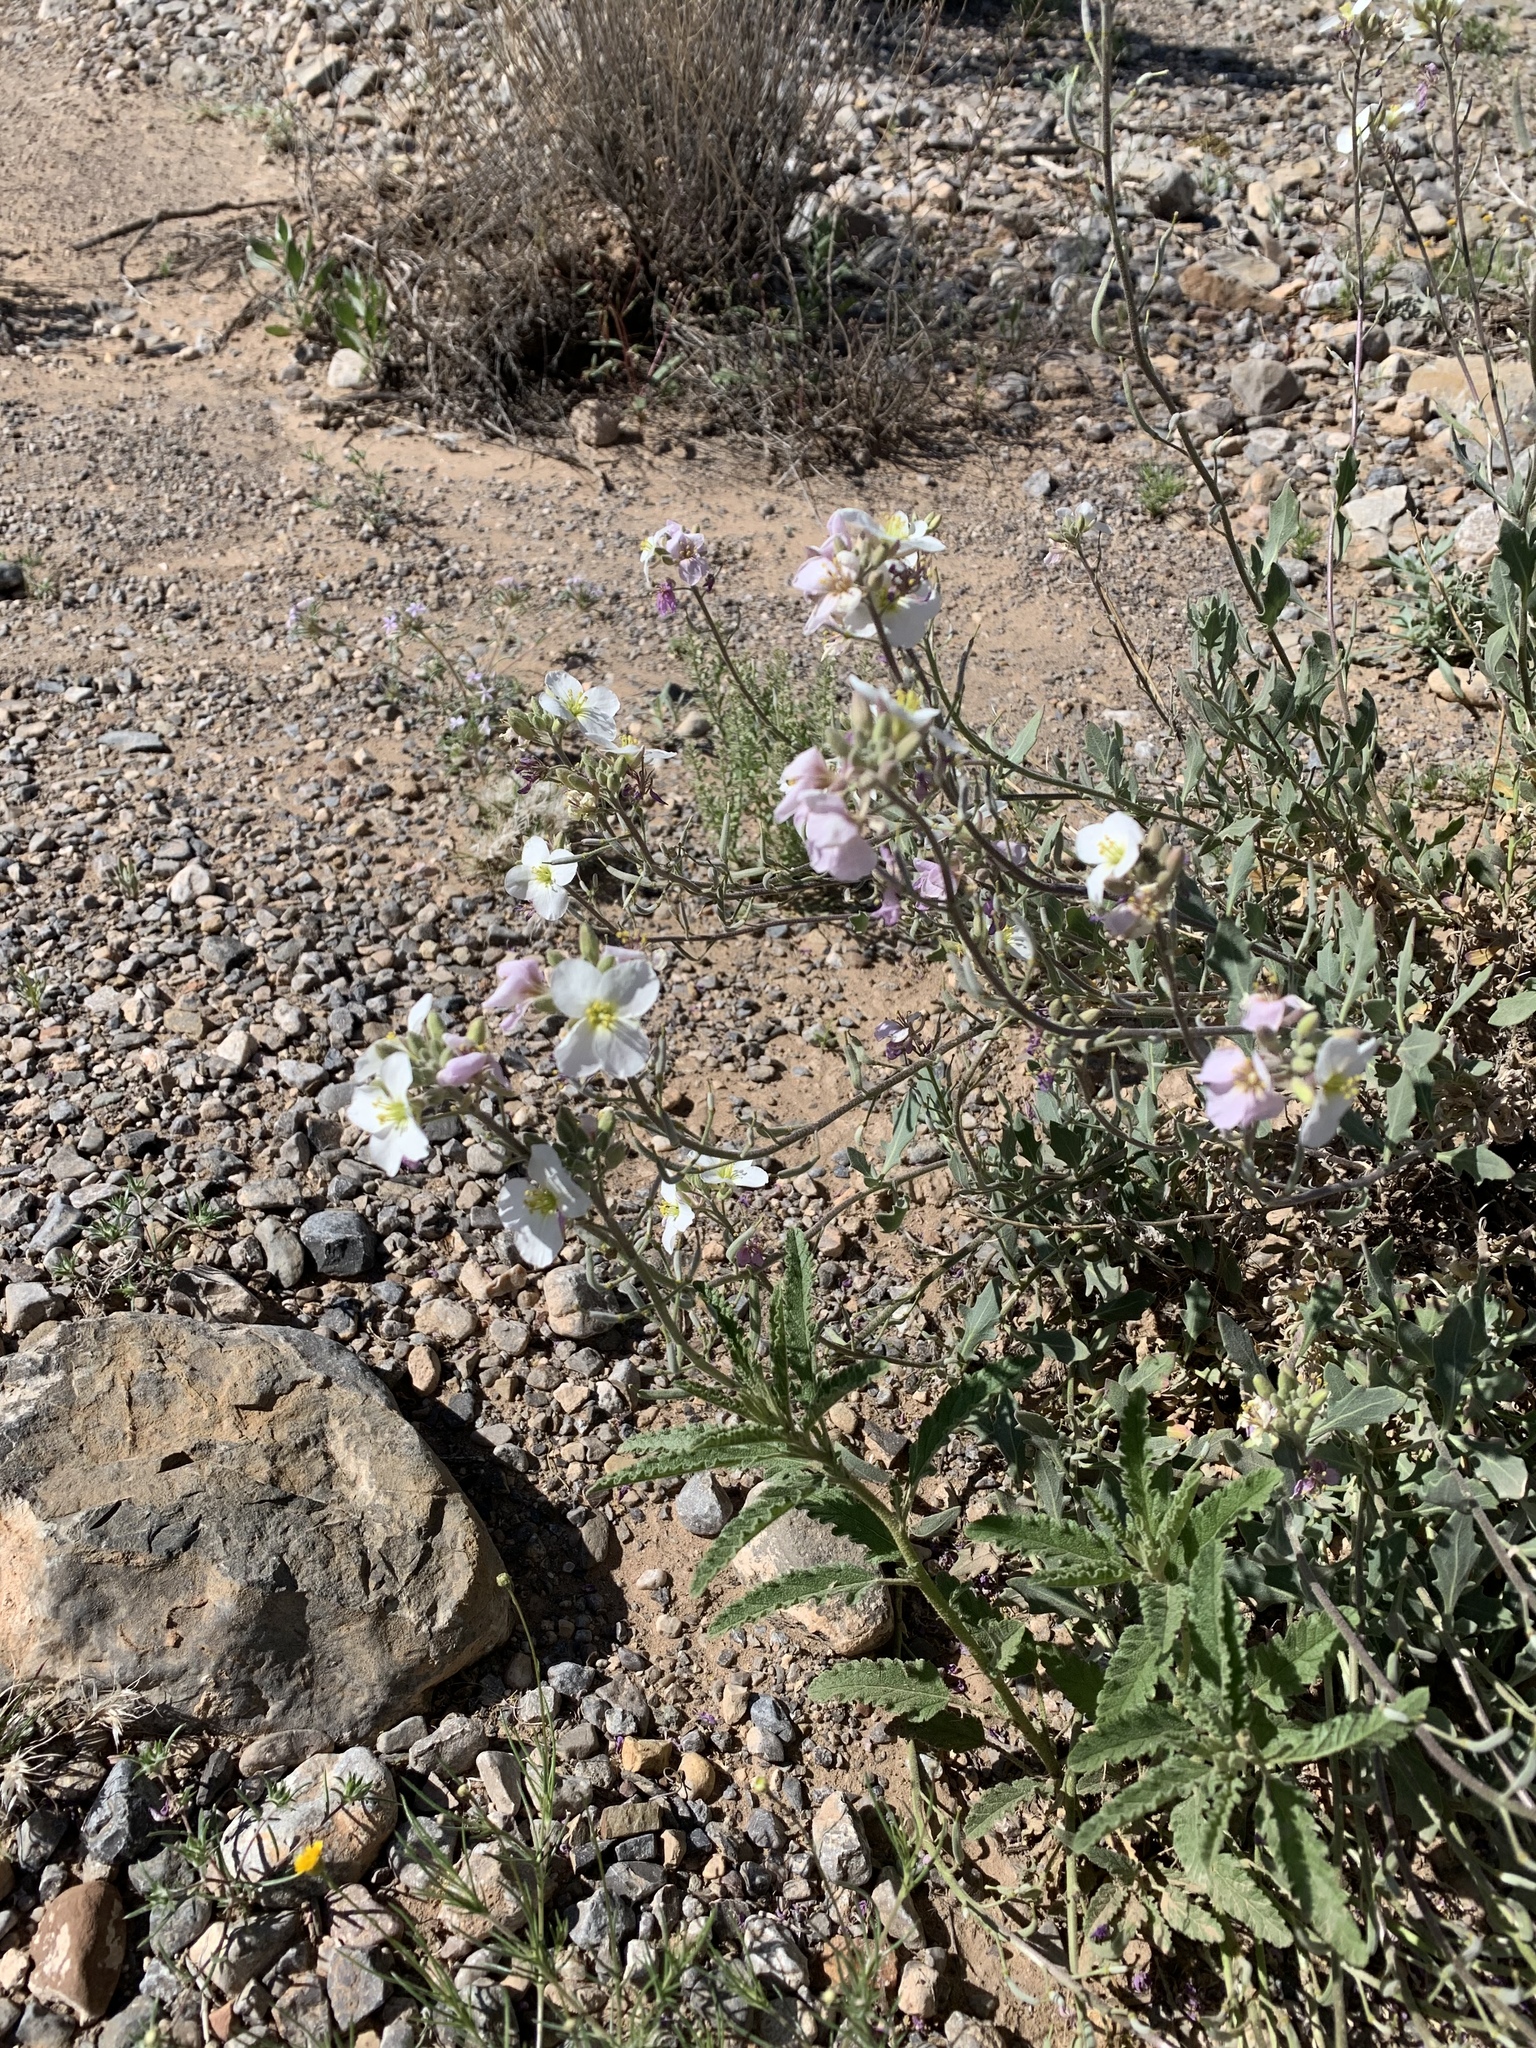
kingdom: Plantae
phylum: Tracheophyta
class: Magnoliopsida
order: Brassicales
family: Brassicaceae
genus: Nerisyrenia
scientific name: Nerisyrenia camporum
